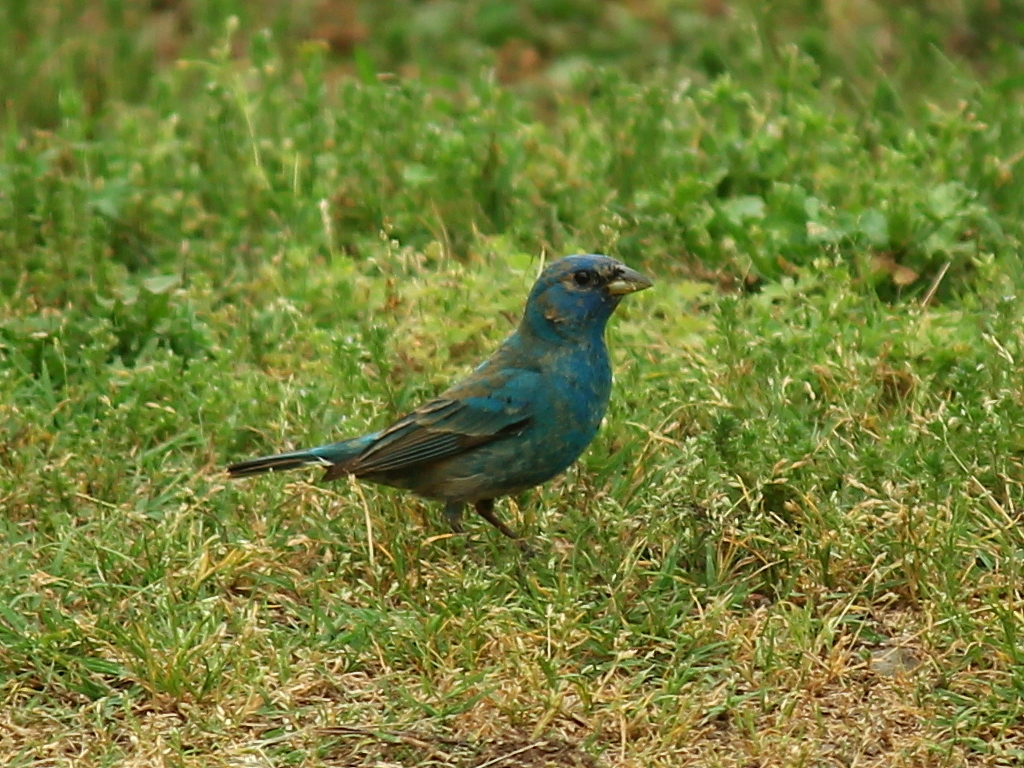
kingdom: Animalia
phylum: Chordata
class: Aves
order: Passeriformes
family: Cardinalidae
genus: Passerina
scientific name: Passerina cyanea
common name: Indigo bunting
